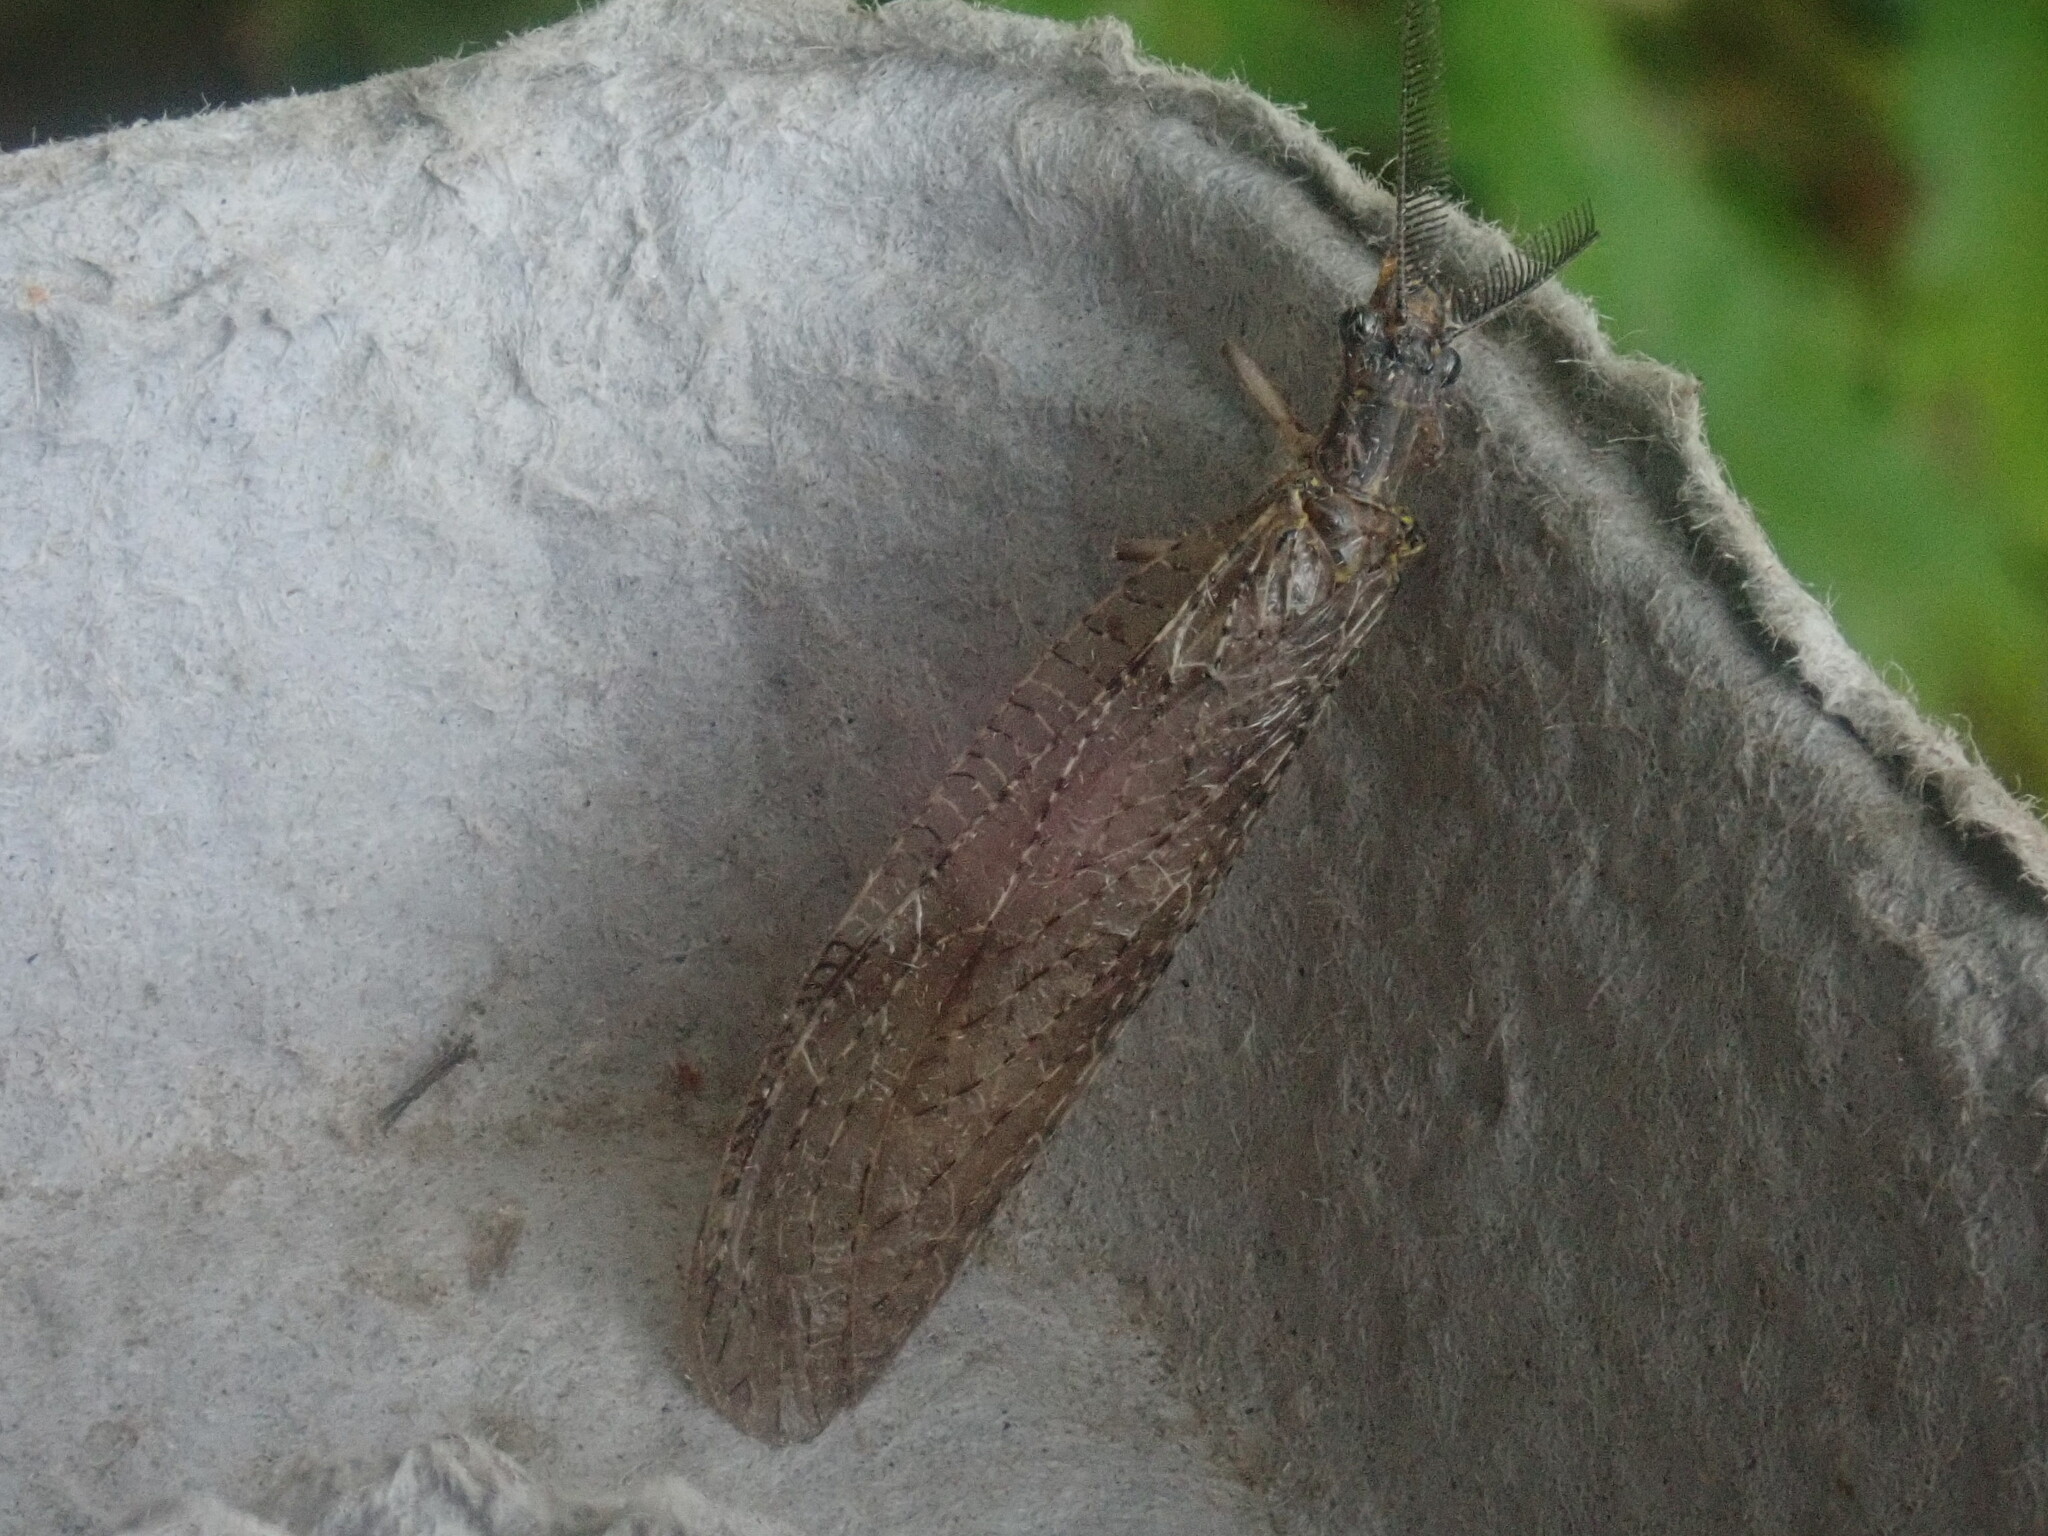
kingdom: Animalia
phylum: Arthropoda
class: Insecta
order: Megaloptera
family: Corydalidae
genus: Chauliodes
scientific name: Chauliodes pectinicornis
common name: Summer fishfly
